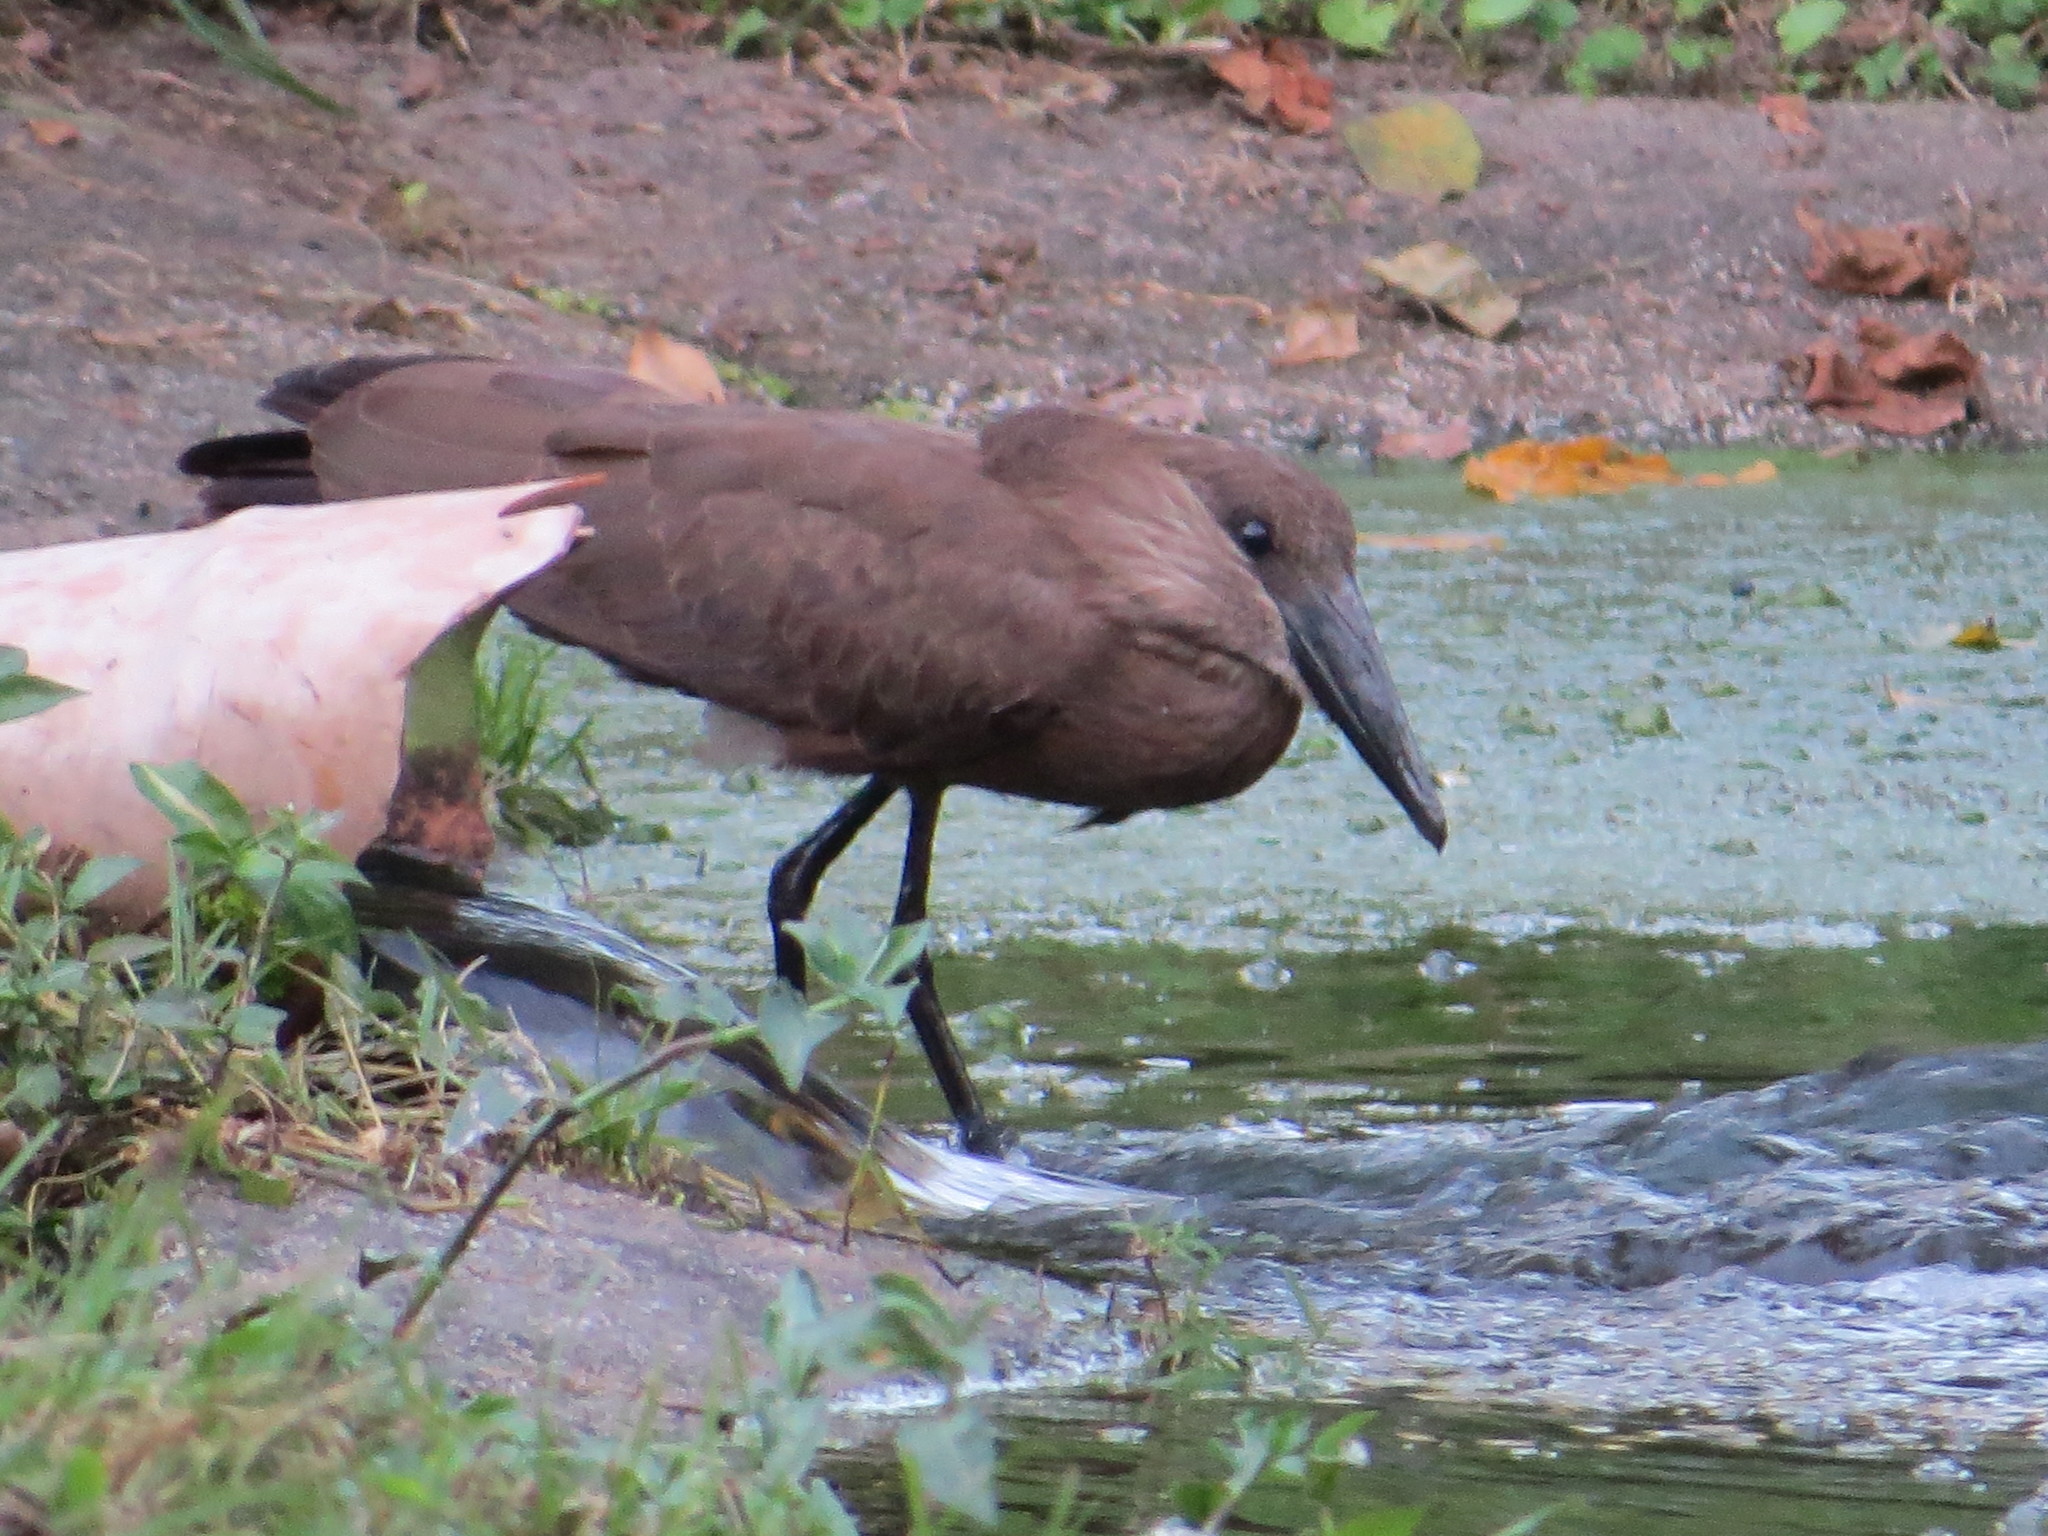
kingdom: Animalia
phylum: Chordata
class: Aves
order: Pelecaniformes
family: Scopidae
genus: Scopus
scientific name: Scopus umbretta
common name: Hamerkop
